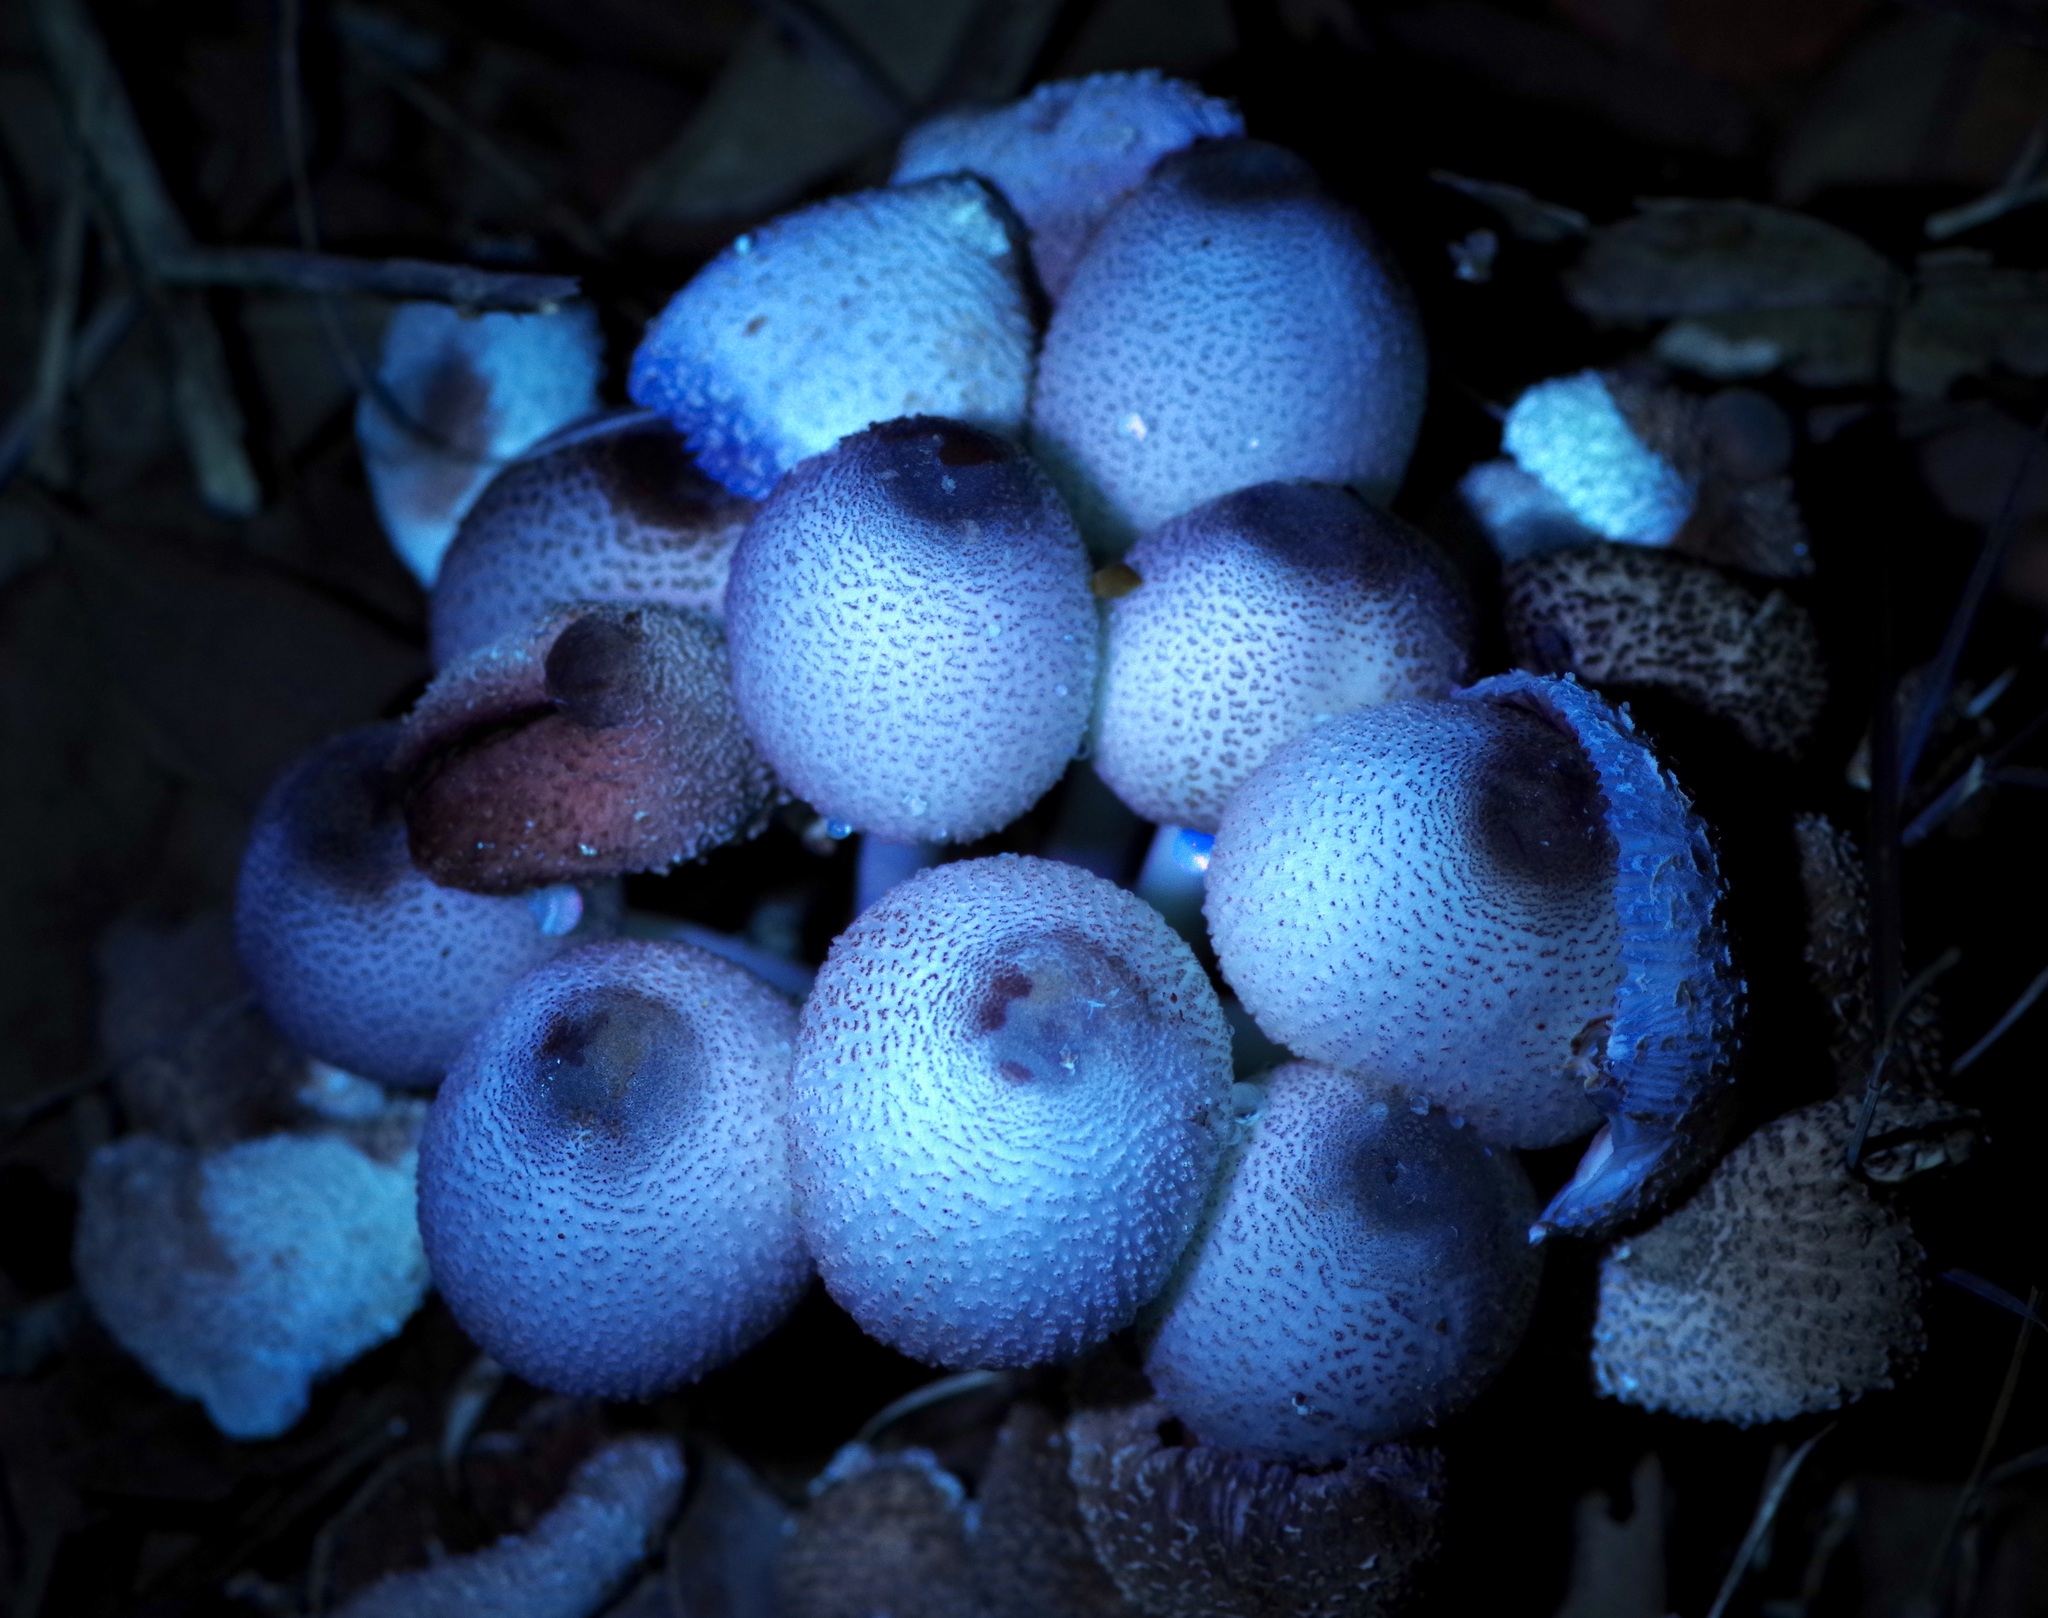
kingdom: Fungi
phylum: Basidiomycota
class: Agaricomycetes
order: Agaricales
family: Agaricaceae
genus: Leucocoprinus
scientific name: Leucocoprinus cepistipes
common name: Onion-stalk parasol
